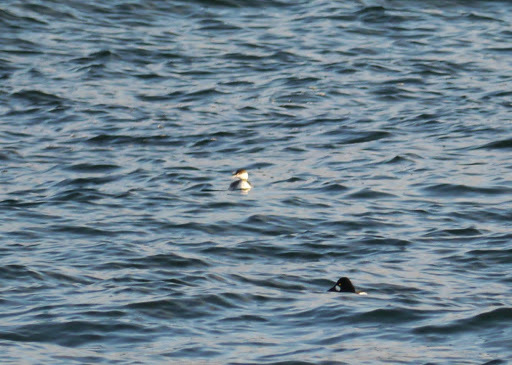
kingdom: Animalia
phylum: Chordata
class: Aves
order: Podicipediformes
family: Podicipedidae
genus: Podiceps
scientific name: Podiceps auritus
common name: Horned grebe
